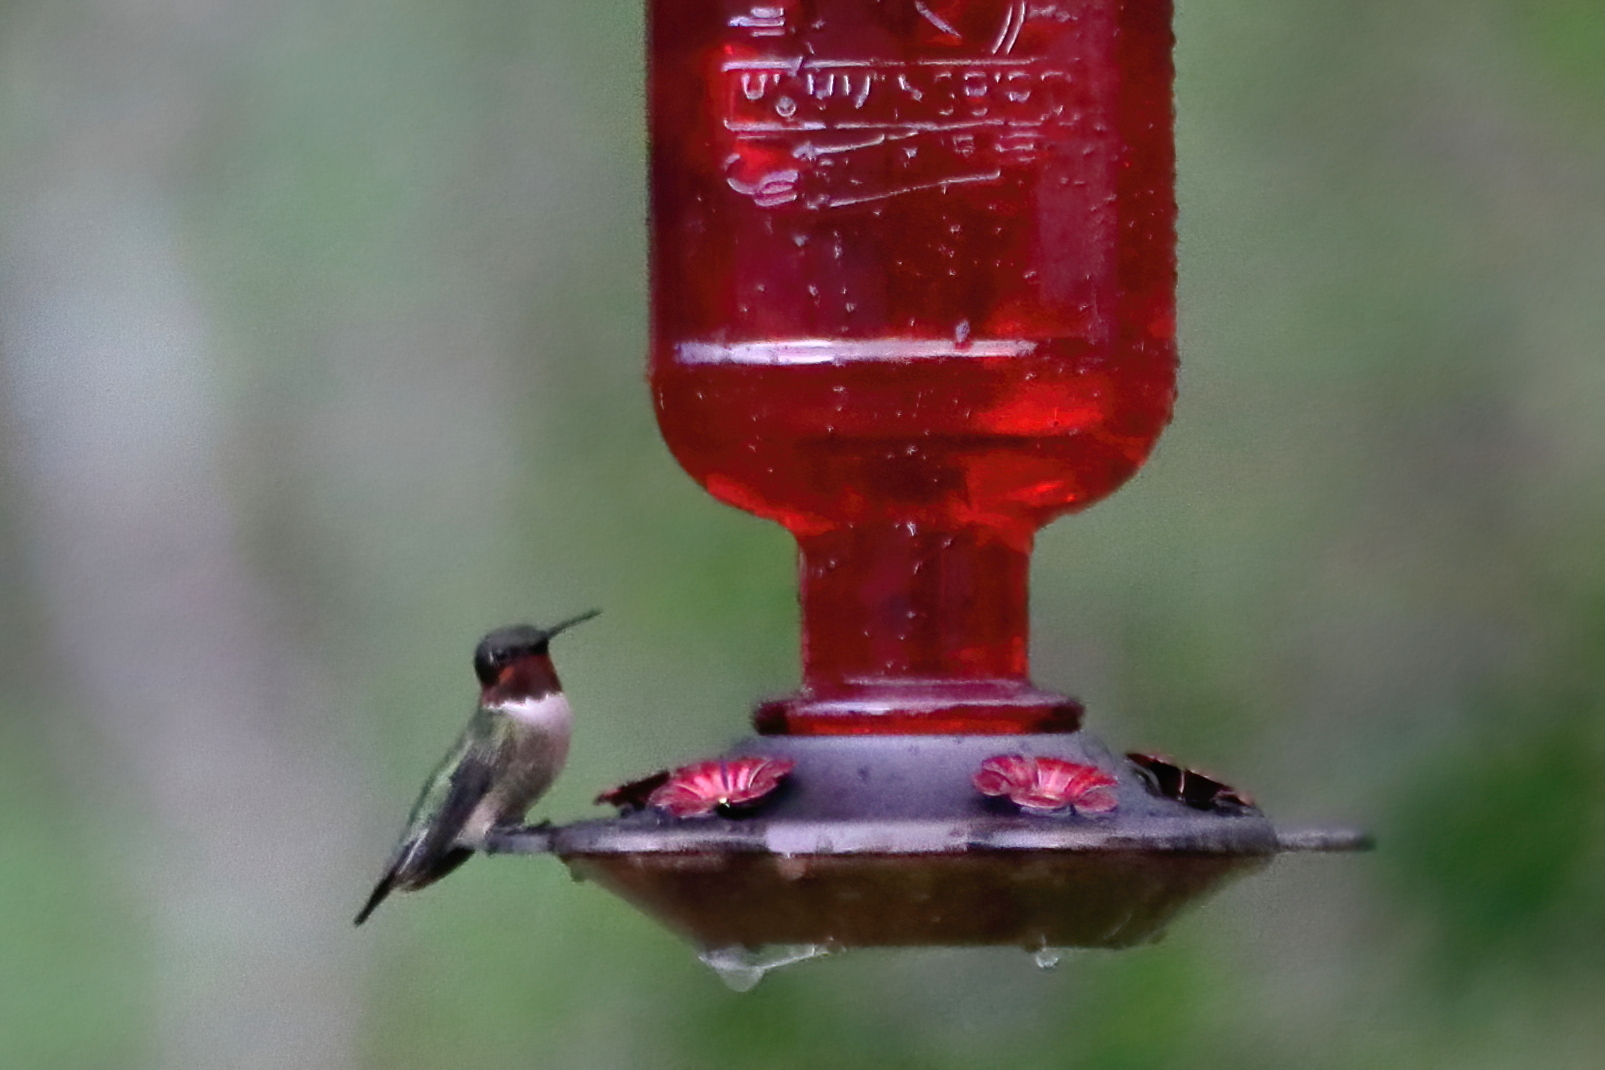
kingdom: Animalia
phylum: Chordata
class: Aves
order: Apodiformes
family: Trochilidae
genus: Archilochus
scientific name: Archilochus colubris
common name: Ruby-throated hummingbird
